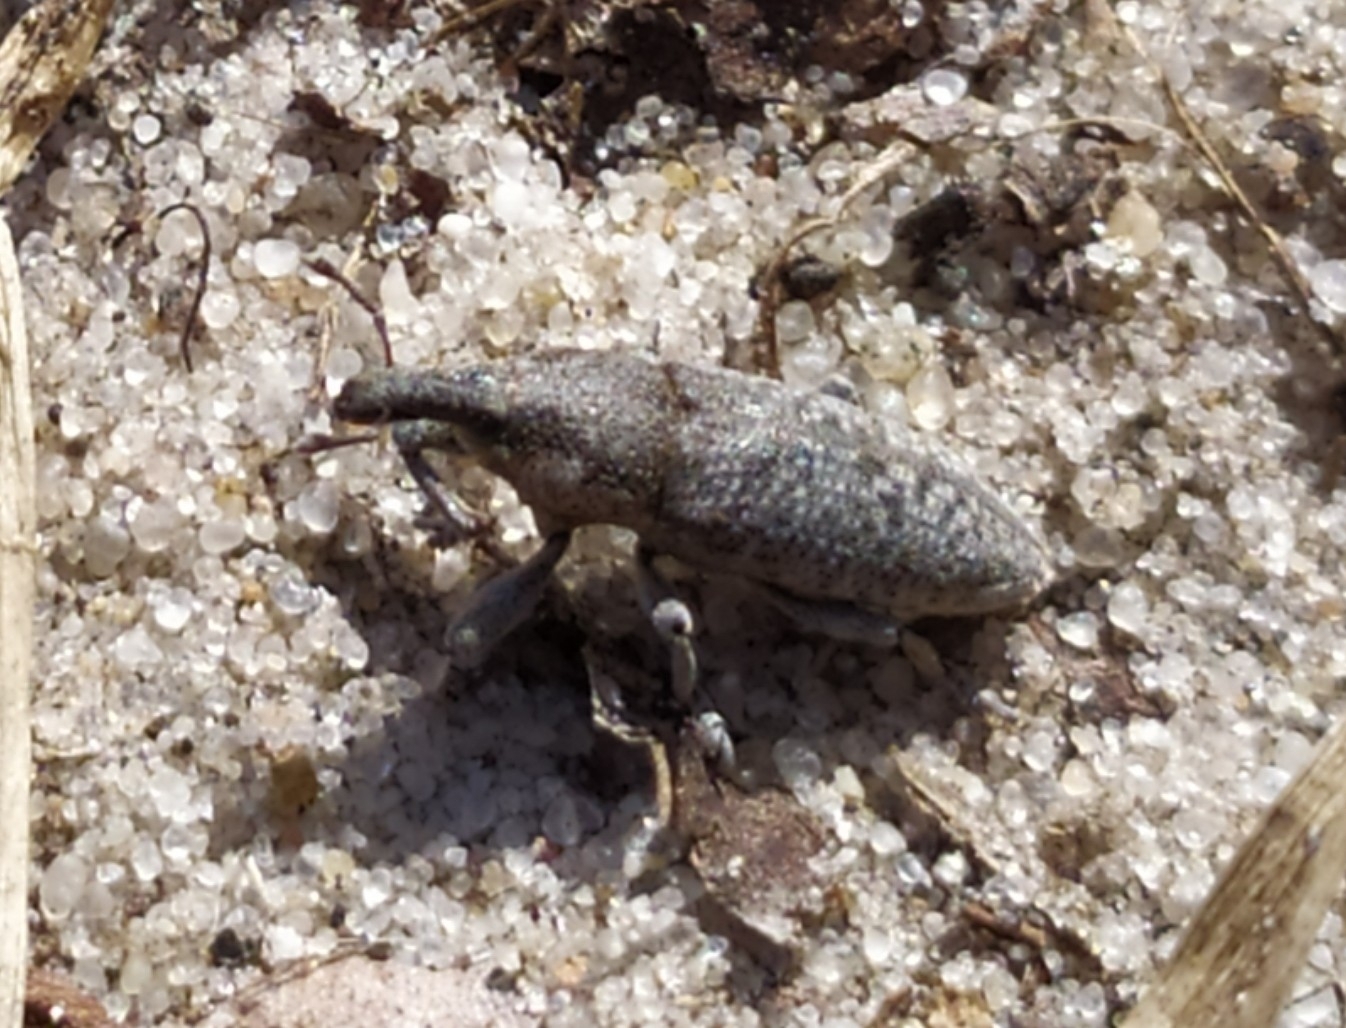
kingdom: Animalia
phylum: Arthropoda
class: Insecta
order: Coleoptera
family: Curculionidae
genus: Lixus
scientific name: Lixus punctirostris
